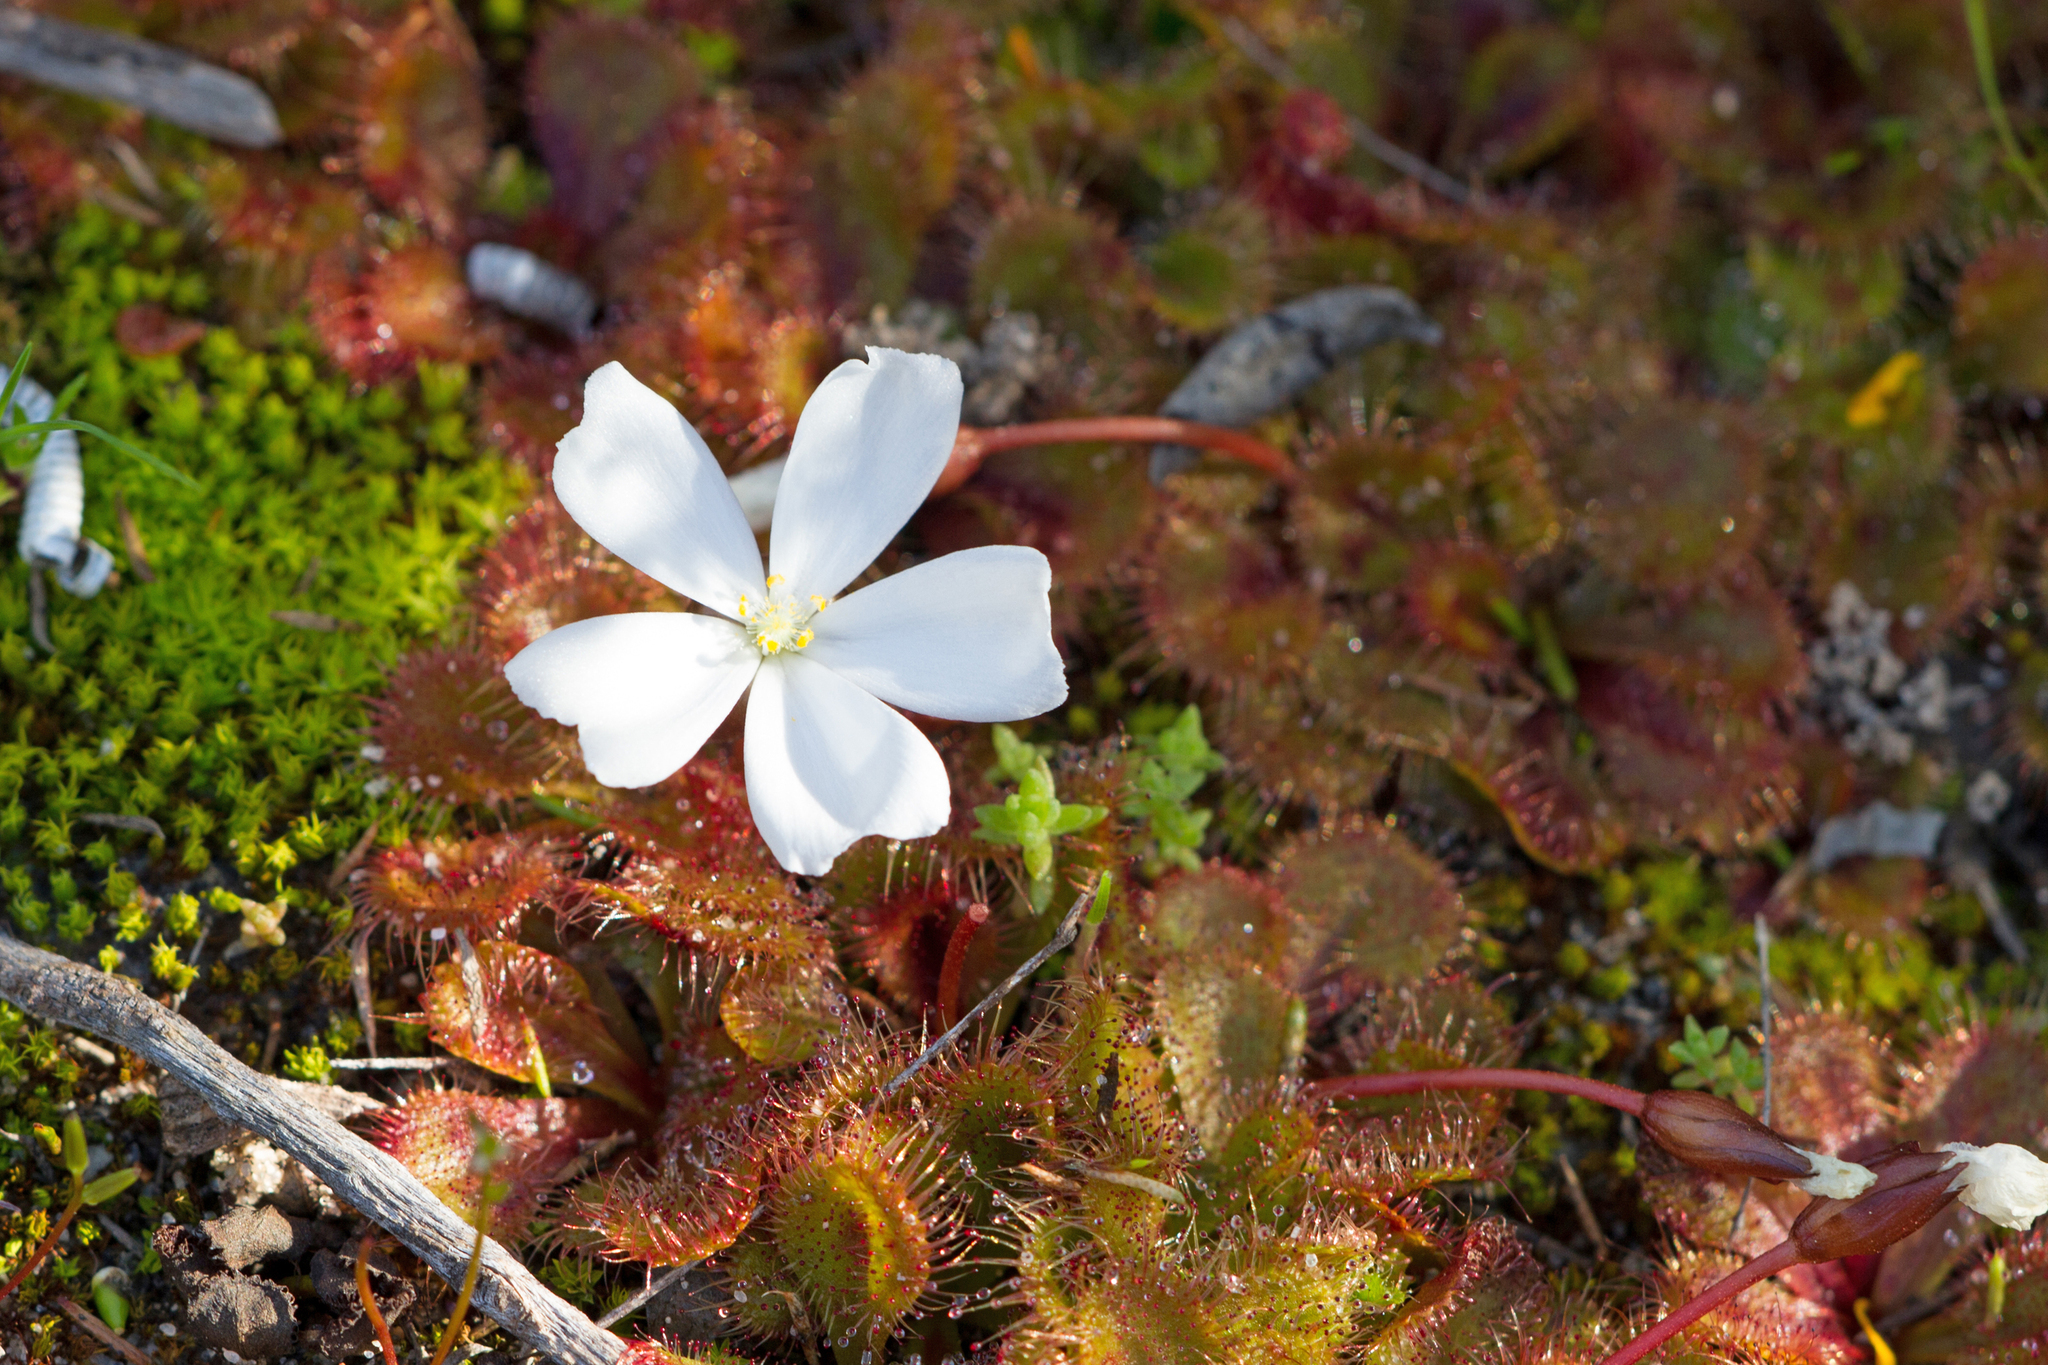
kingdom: Plantae
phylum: Tracheophyta
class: Magnoliopsida
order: Caryophyllales
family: Droseraceae
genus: Drosera
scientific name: Drosera aberrans
